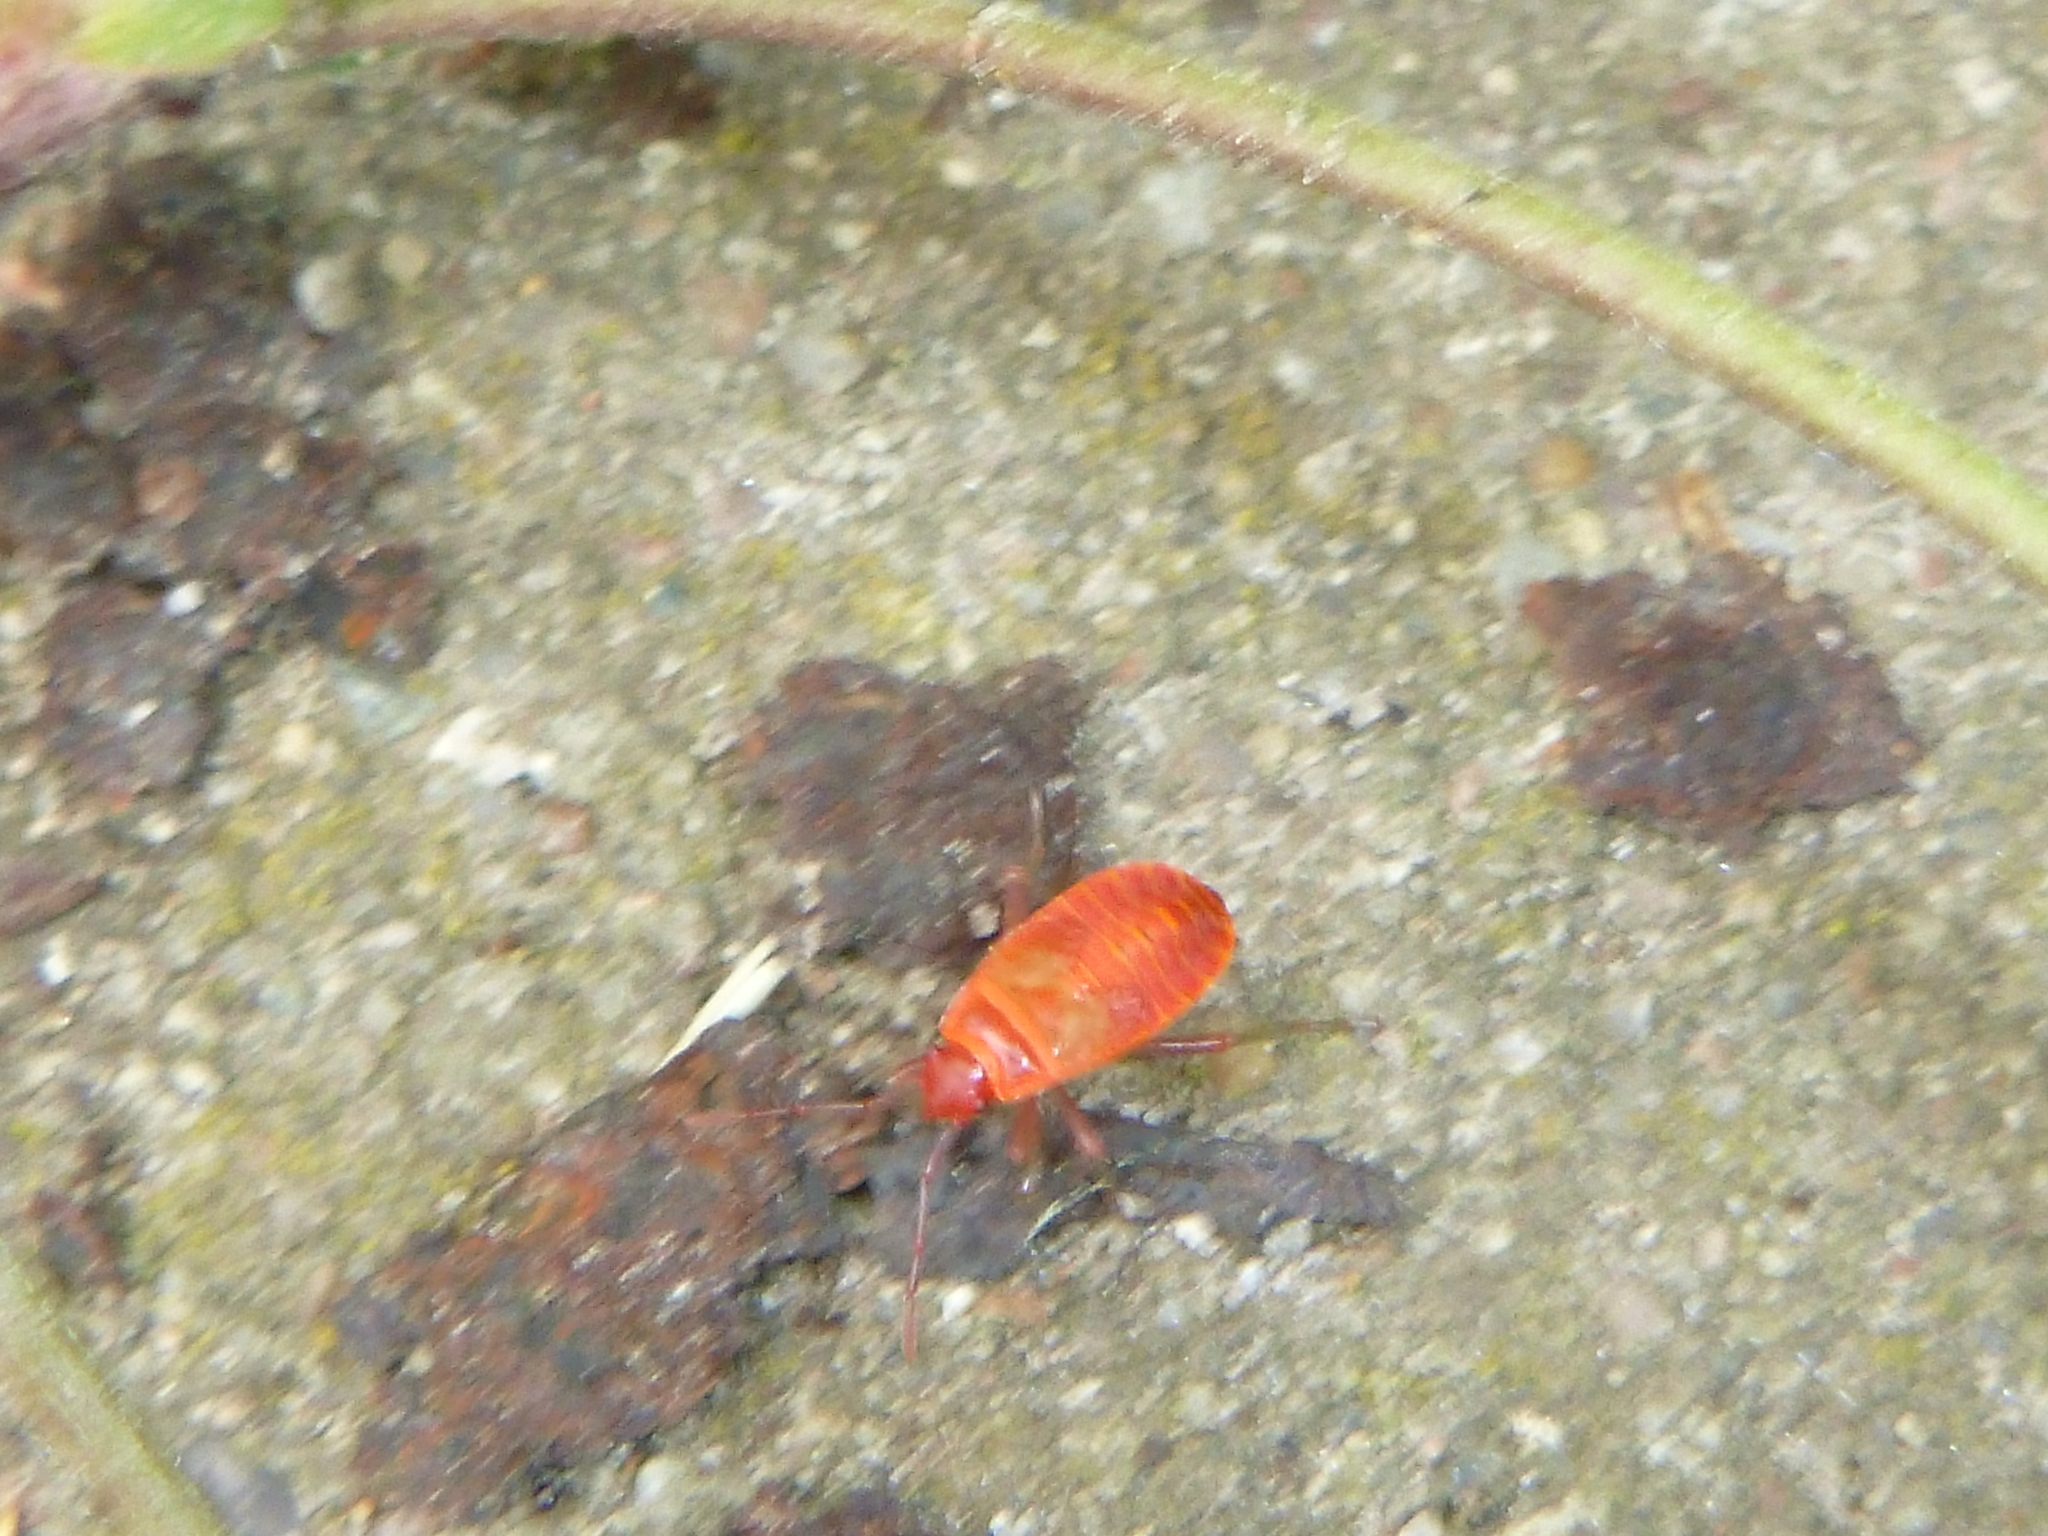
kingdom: Animalia
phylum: Arthropoda
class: Insecta
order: Hemiptera
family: Pyrrhocoridae
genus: Pyrrhocoris
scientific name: Pyrrhocoris apterus
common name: Firebug
